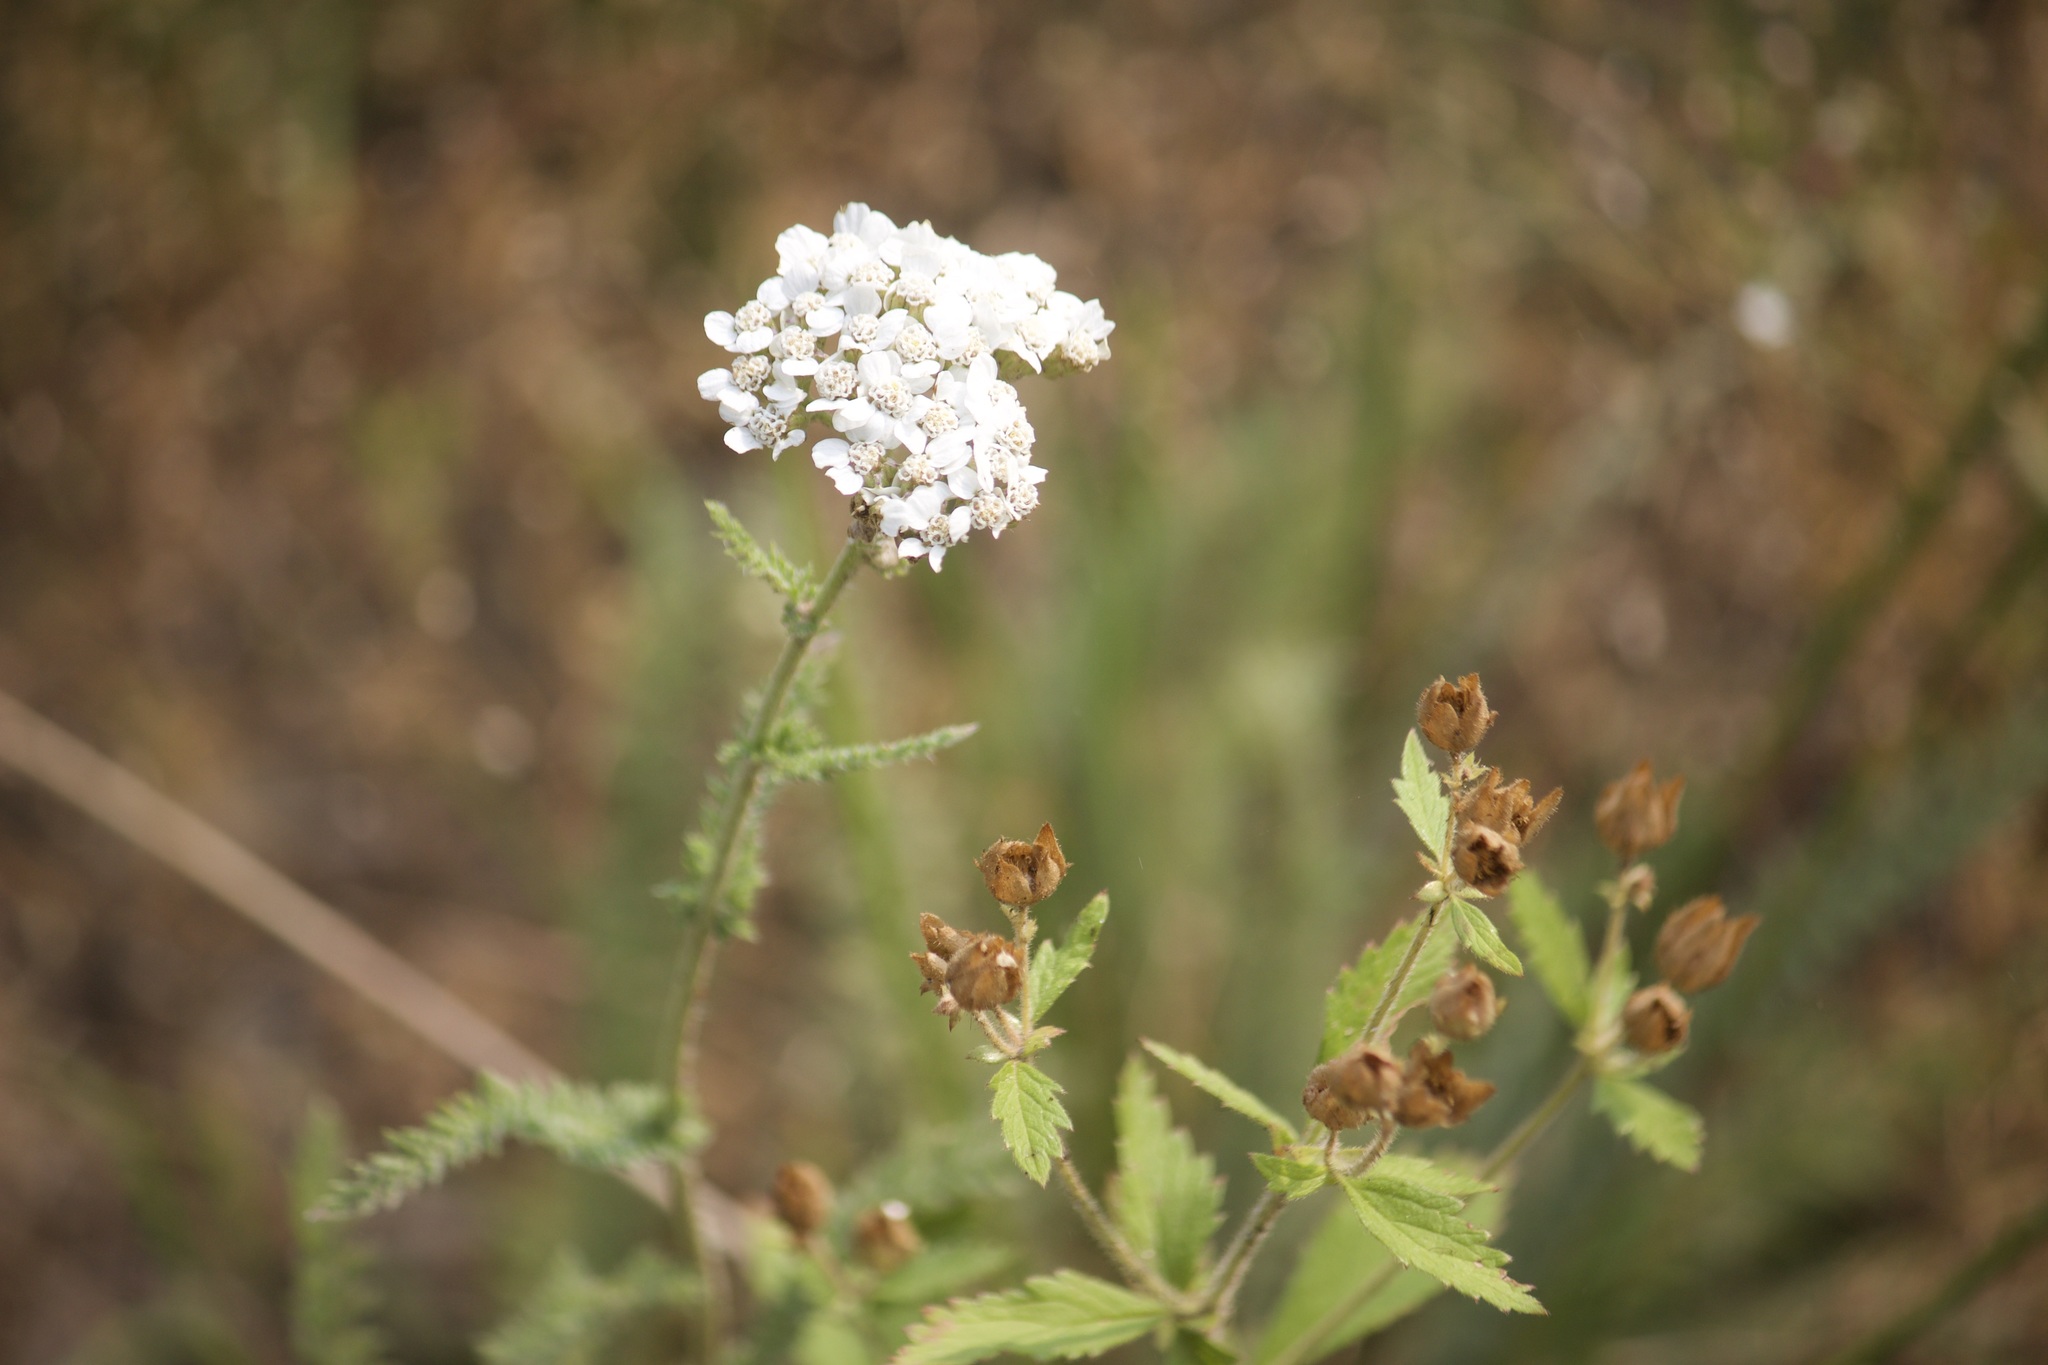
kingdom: Plantae
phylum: Tracheophyta
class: Magnoliopsida
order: Asterales
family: Asteraceae
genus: Achillea
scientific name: Achillea millefolium
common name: Yarrow
